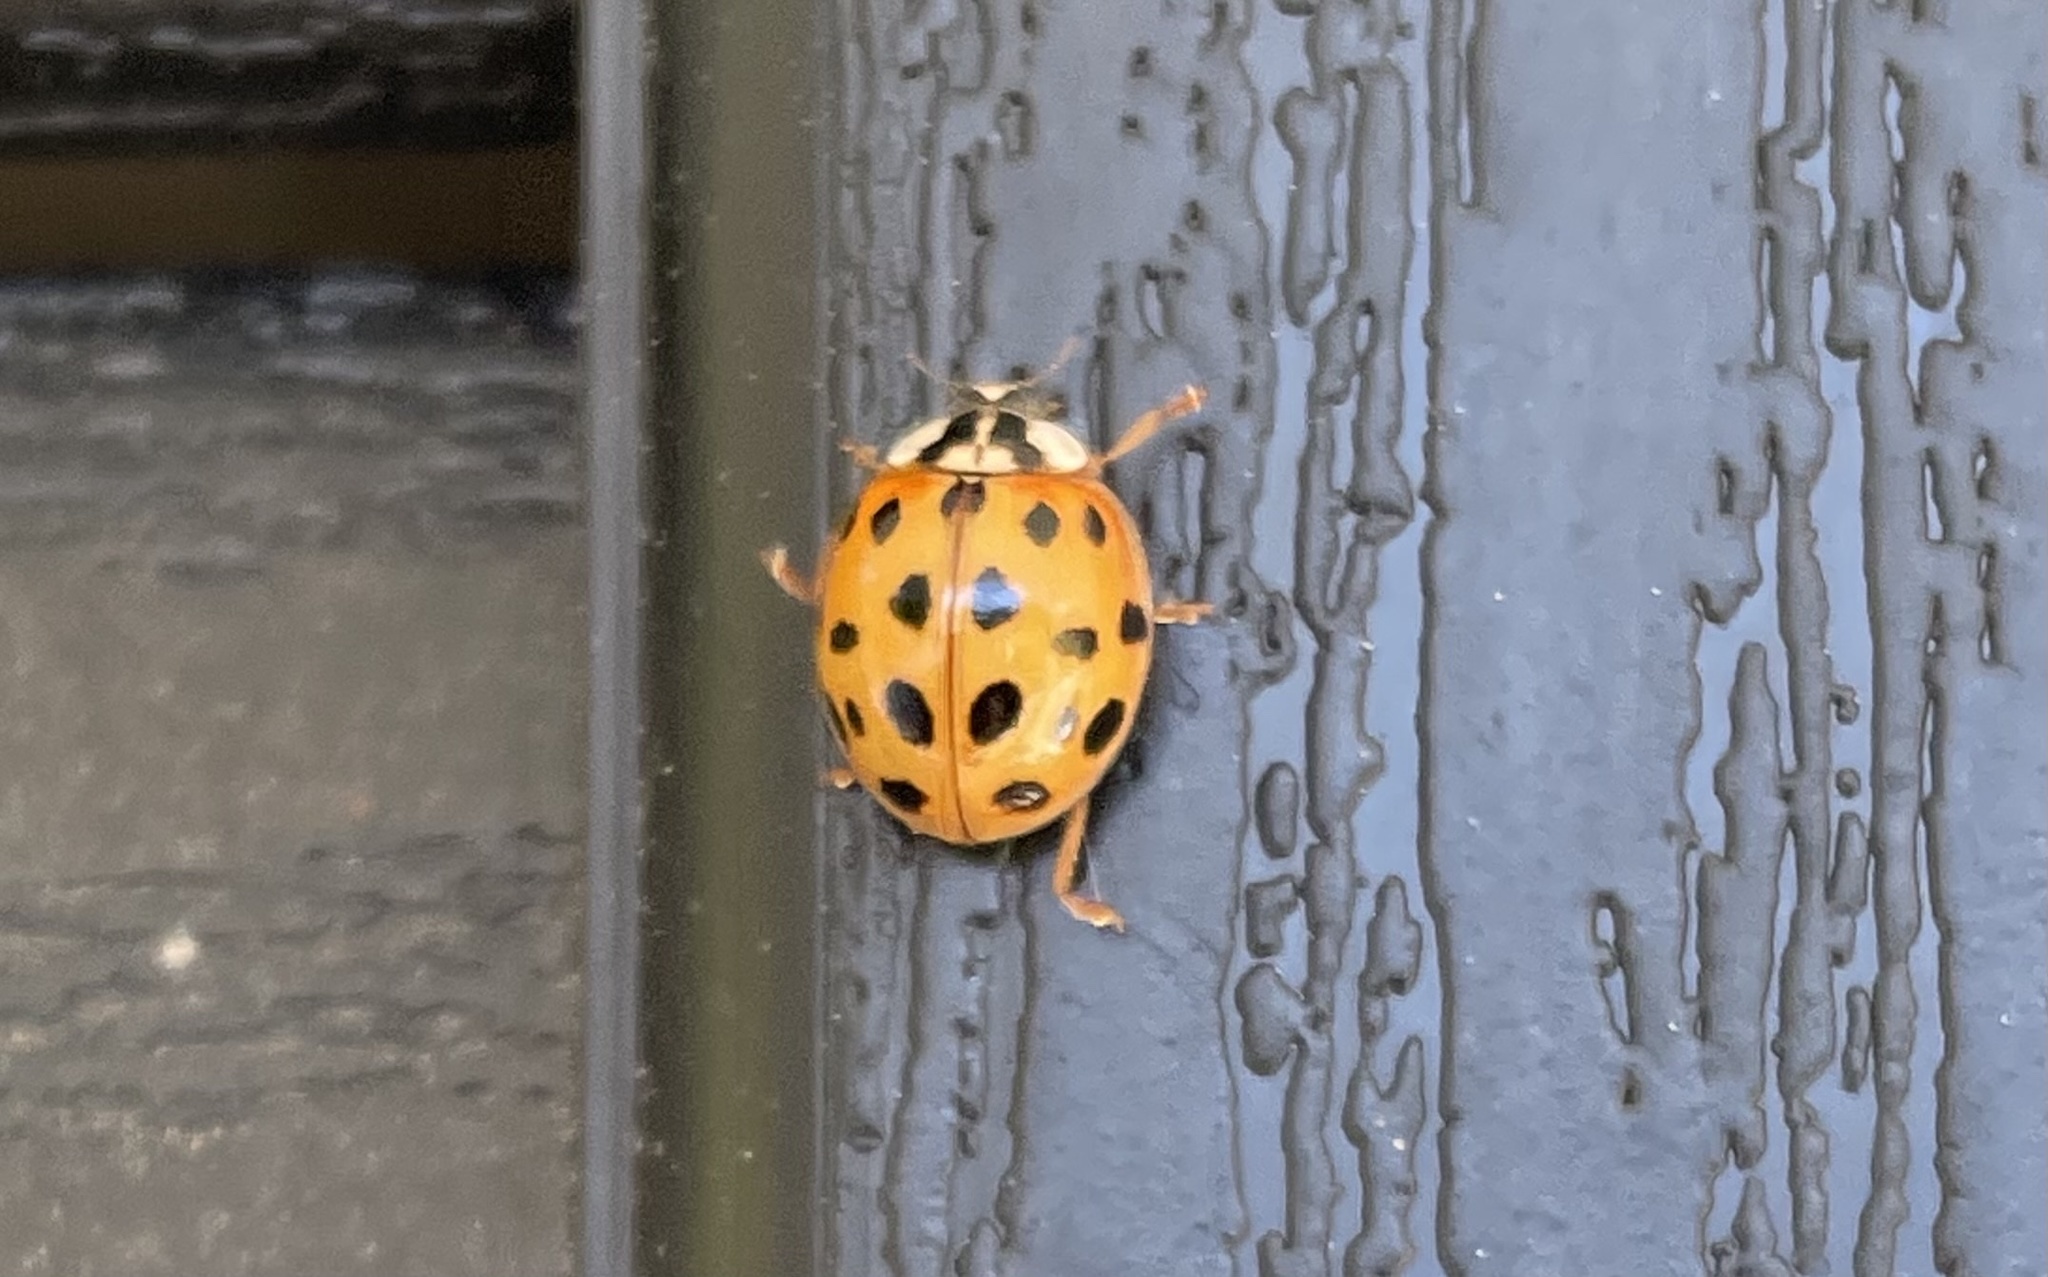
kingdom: Animalia
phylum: Arthropoda
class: Insecta
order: Coleoptera
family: Coccinellidae
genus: Harmonia
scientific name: Harmonia axyridis
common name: Harlequin ladybird
